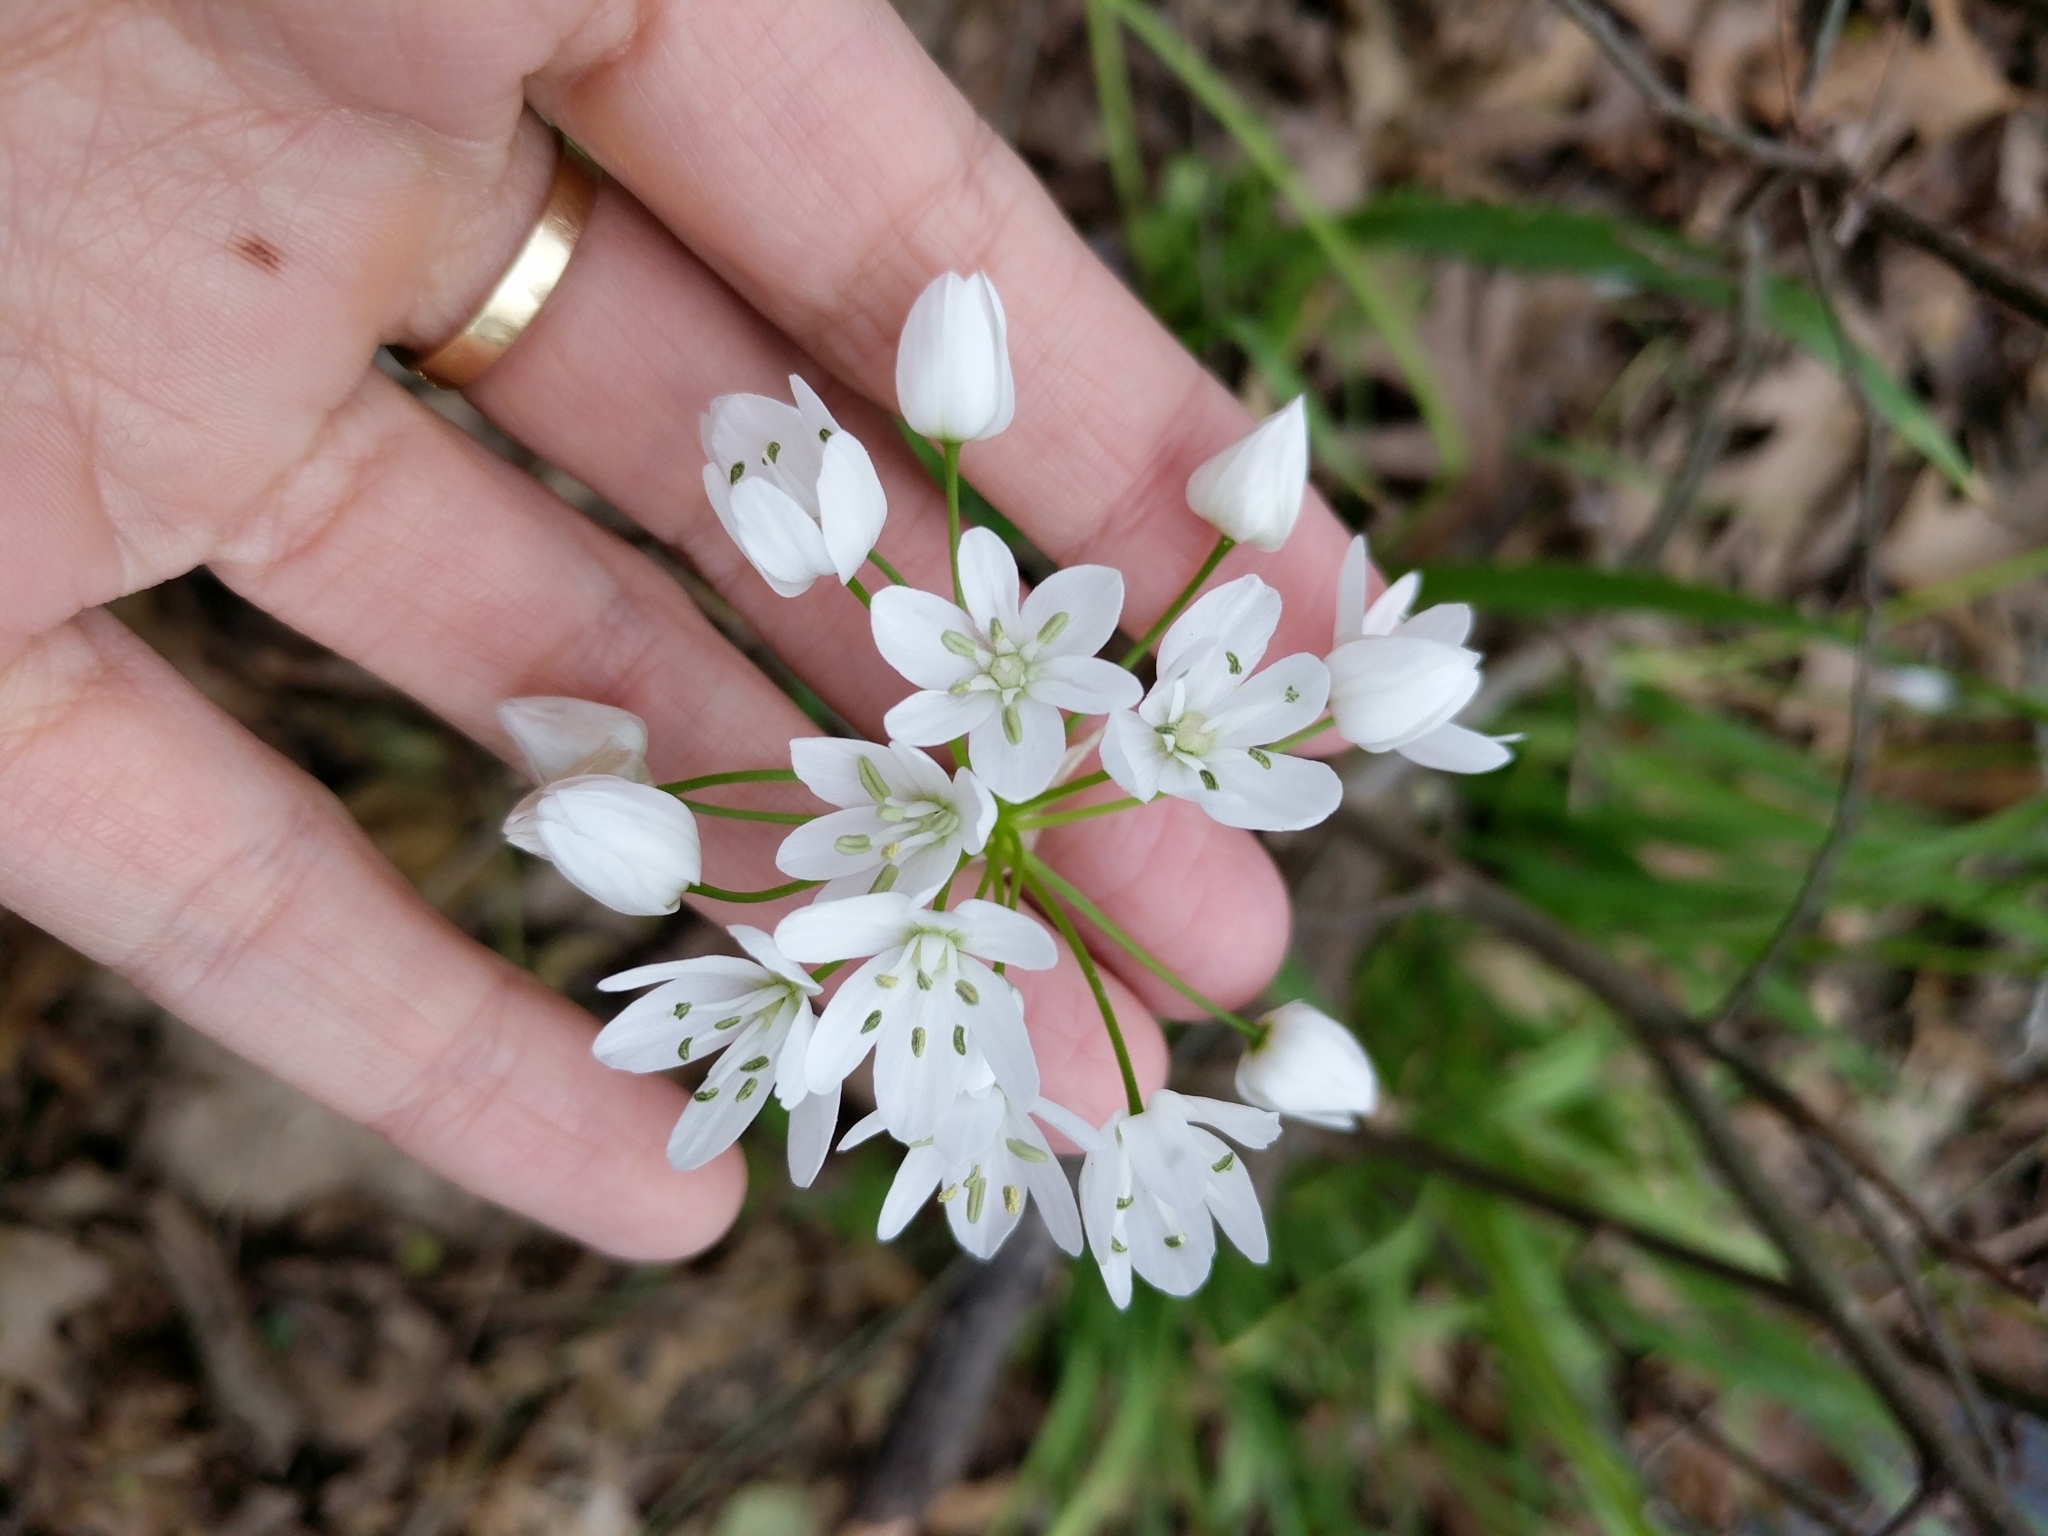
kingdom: Plantae
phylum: Tracheophyta
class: Liliopsida
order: Asparagales
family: Amaryllidaceae
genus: Allium
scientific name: Allium neapolitanum
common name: Neapolitan garlic
